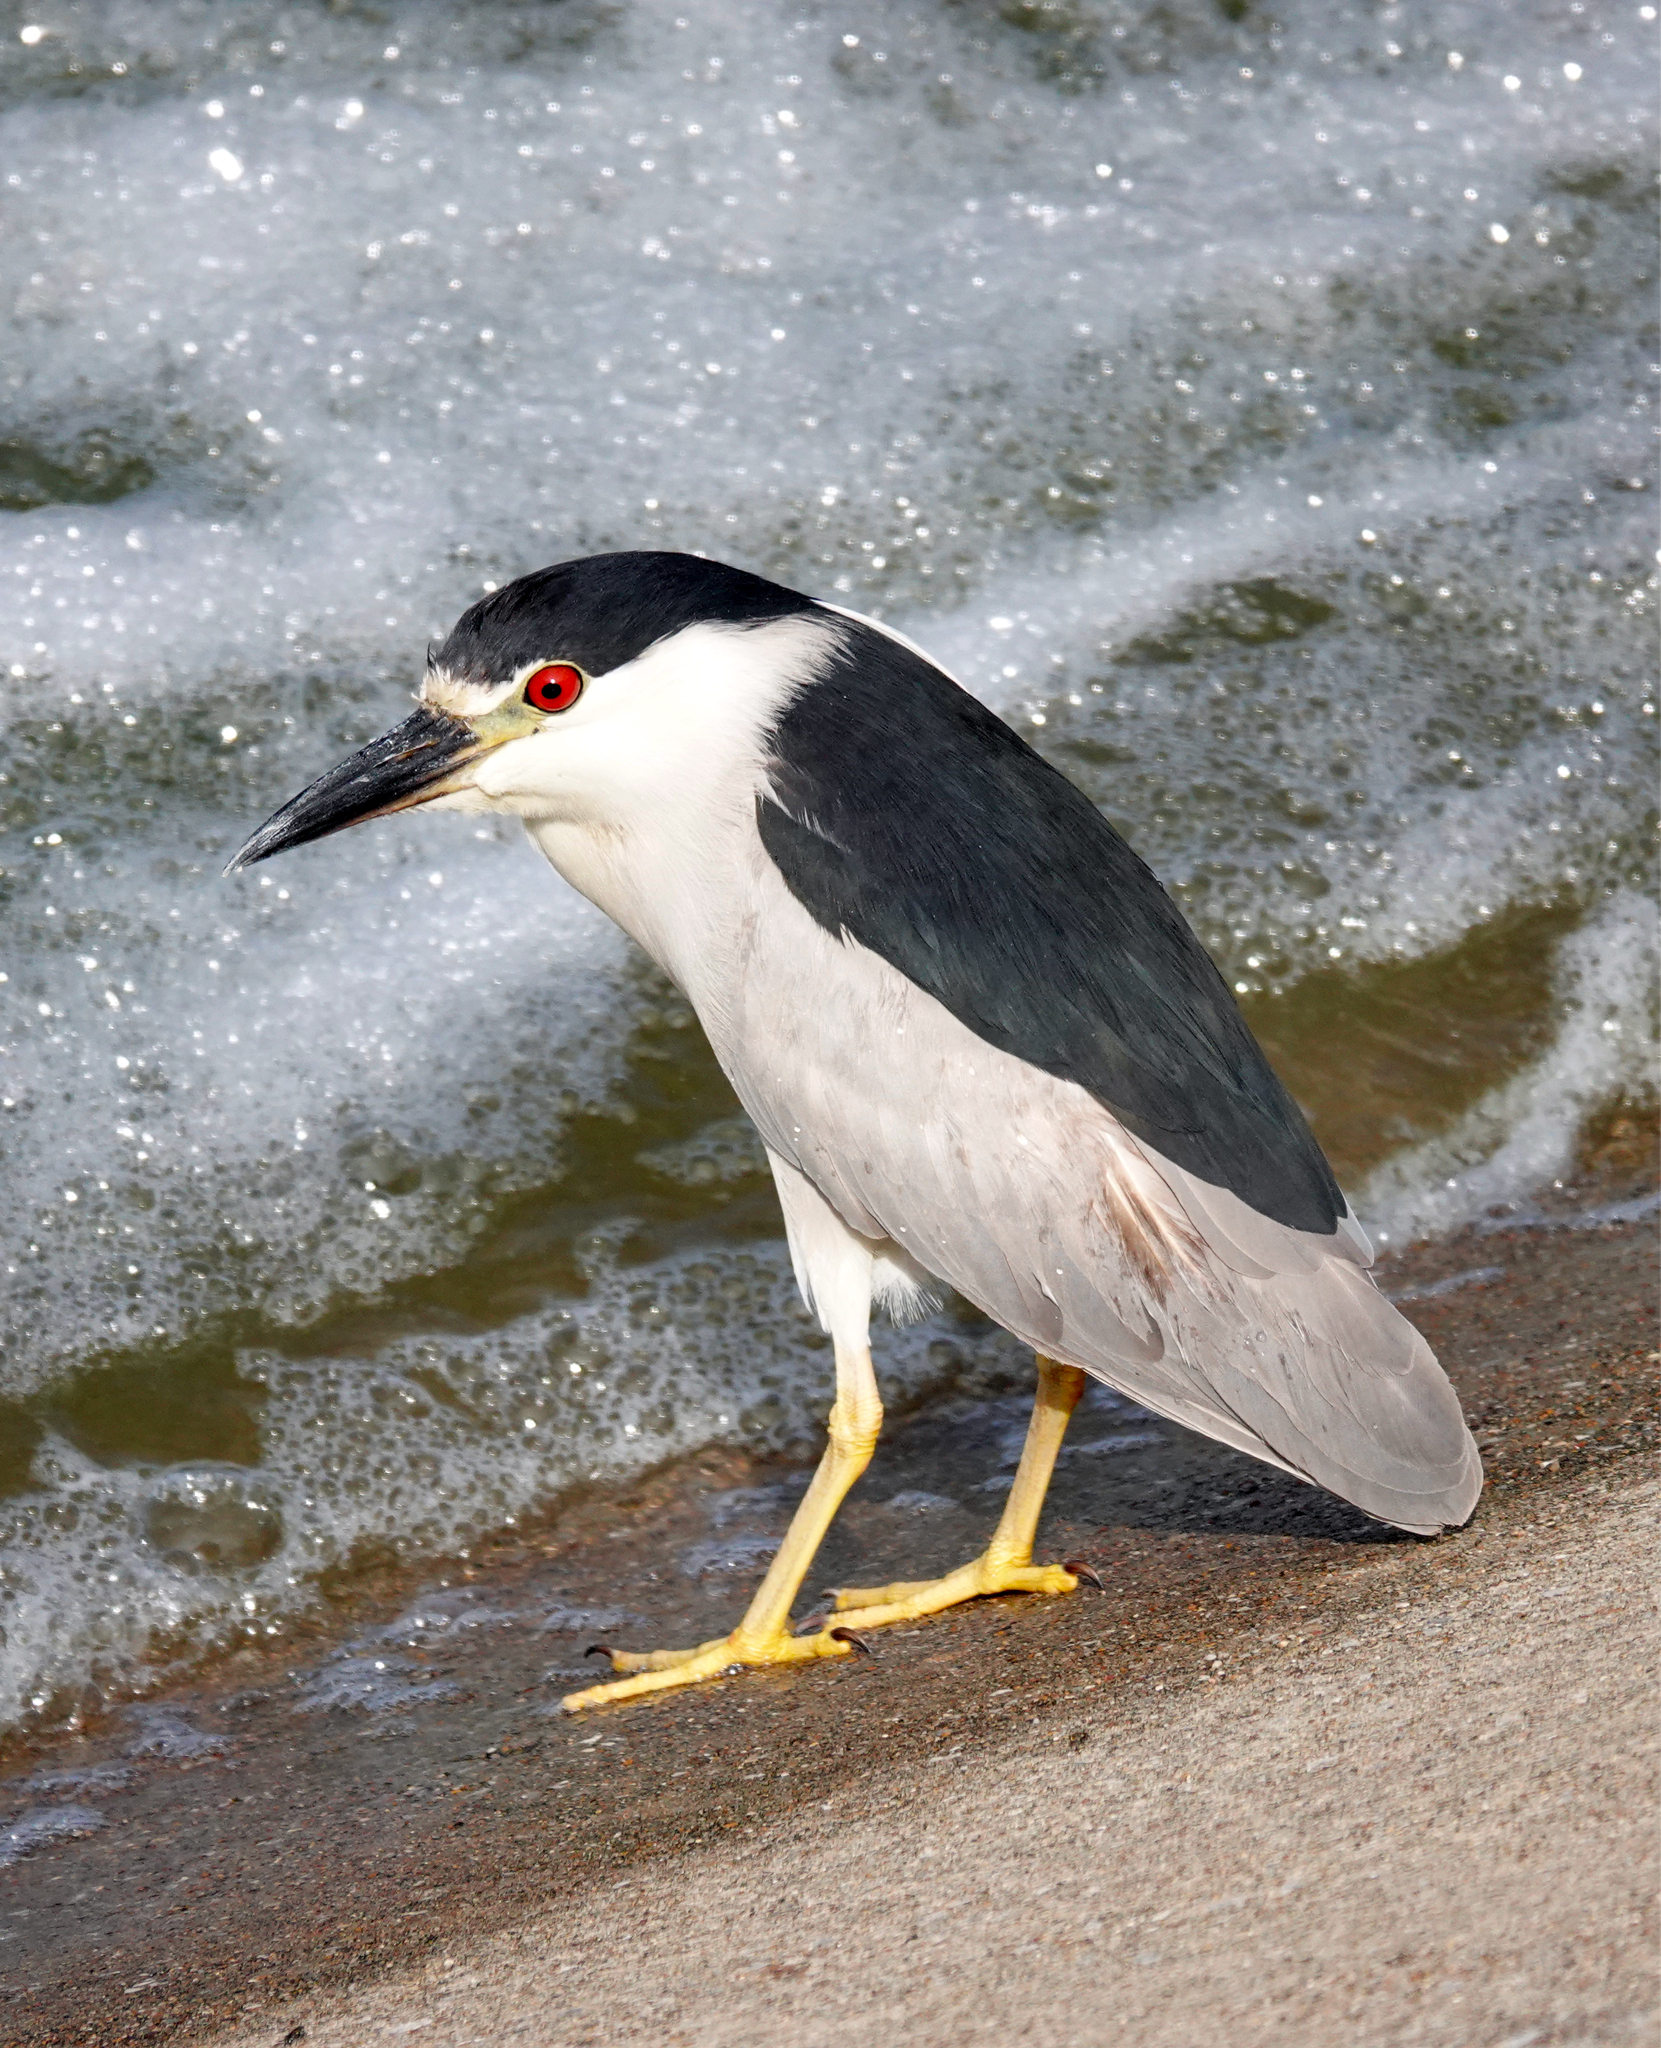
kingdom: Animalia
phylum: Chordata
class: Aves
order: Pelecaniformes
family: Ardeidae
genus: Nycticorax
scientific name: Nycticorax nycticorax
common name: Black-crowned night heron
